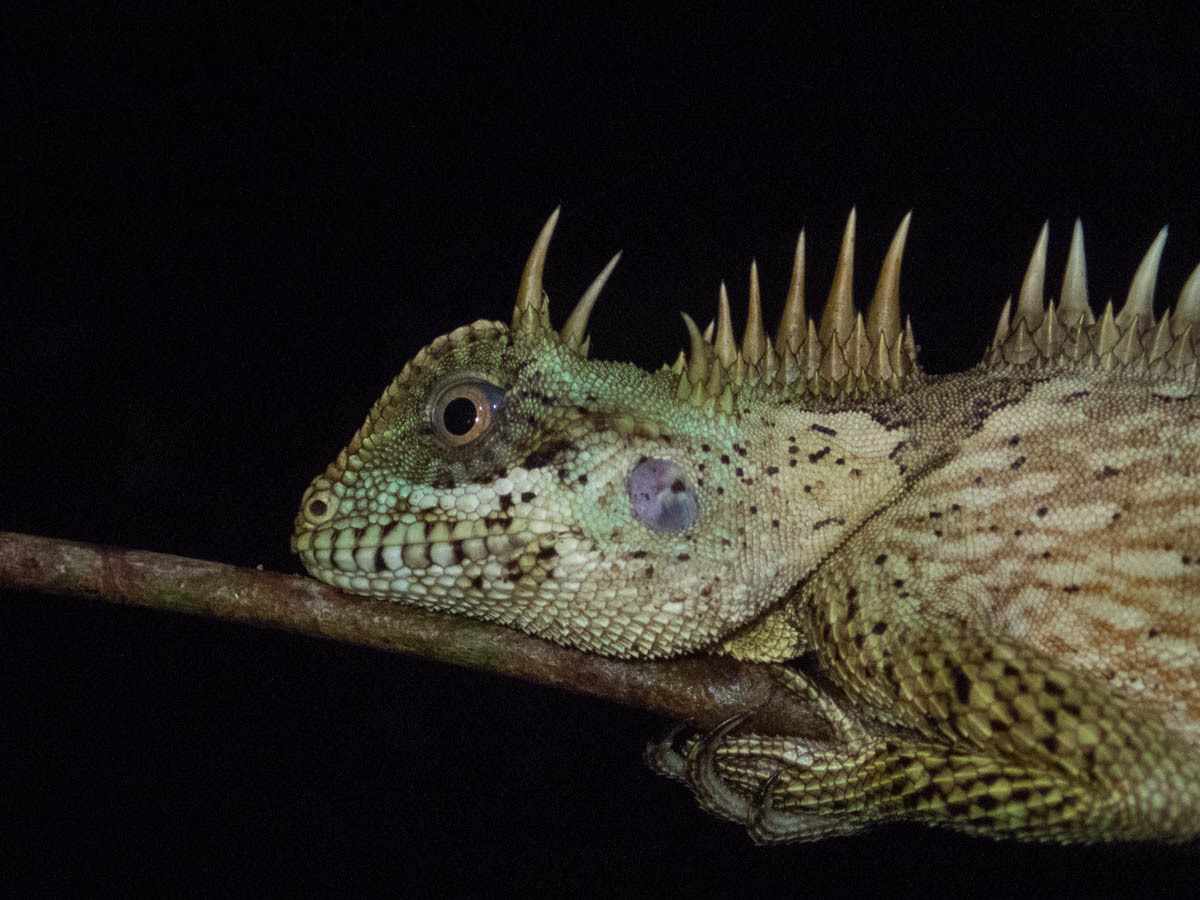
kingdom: Animalia
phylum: Chordata
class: Squamata
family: Agamidae
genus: Acanthosaura
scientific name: Acanthosaura cardamomensis
